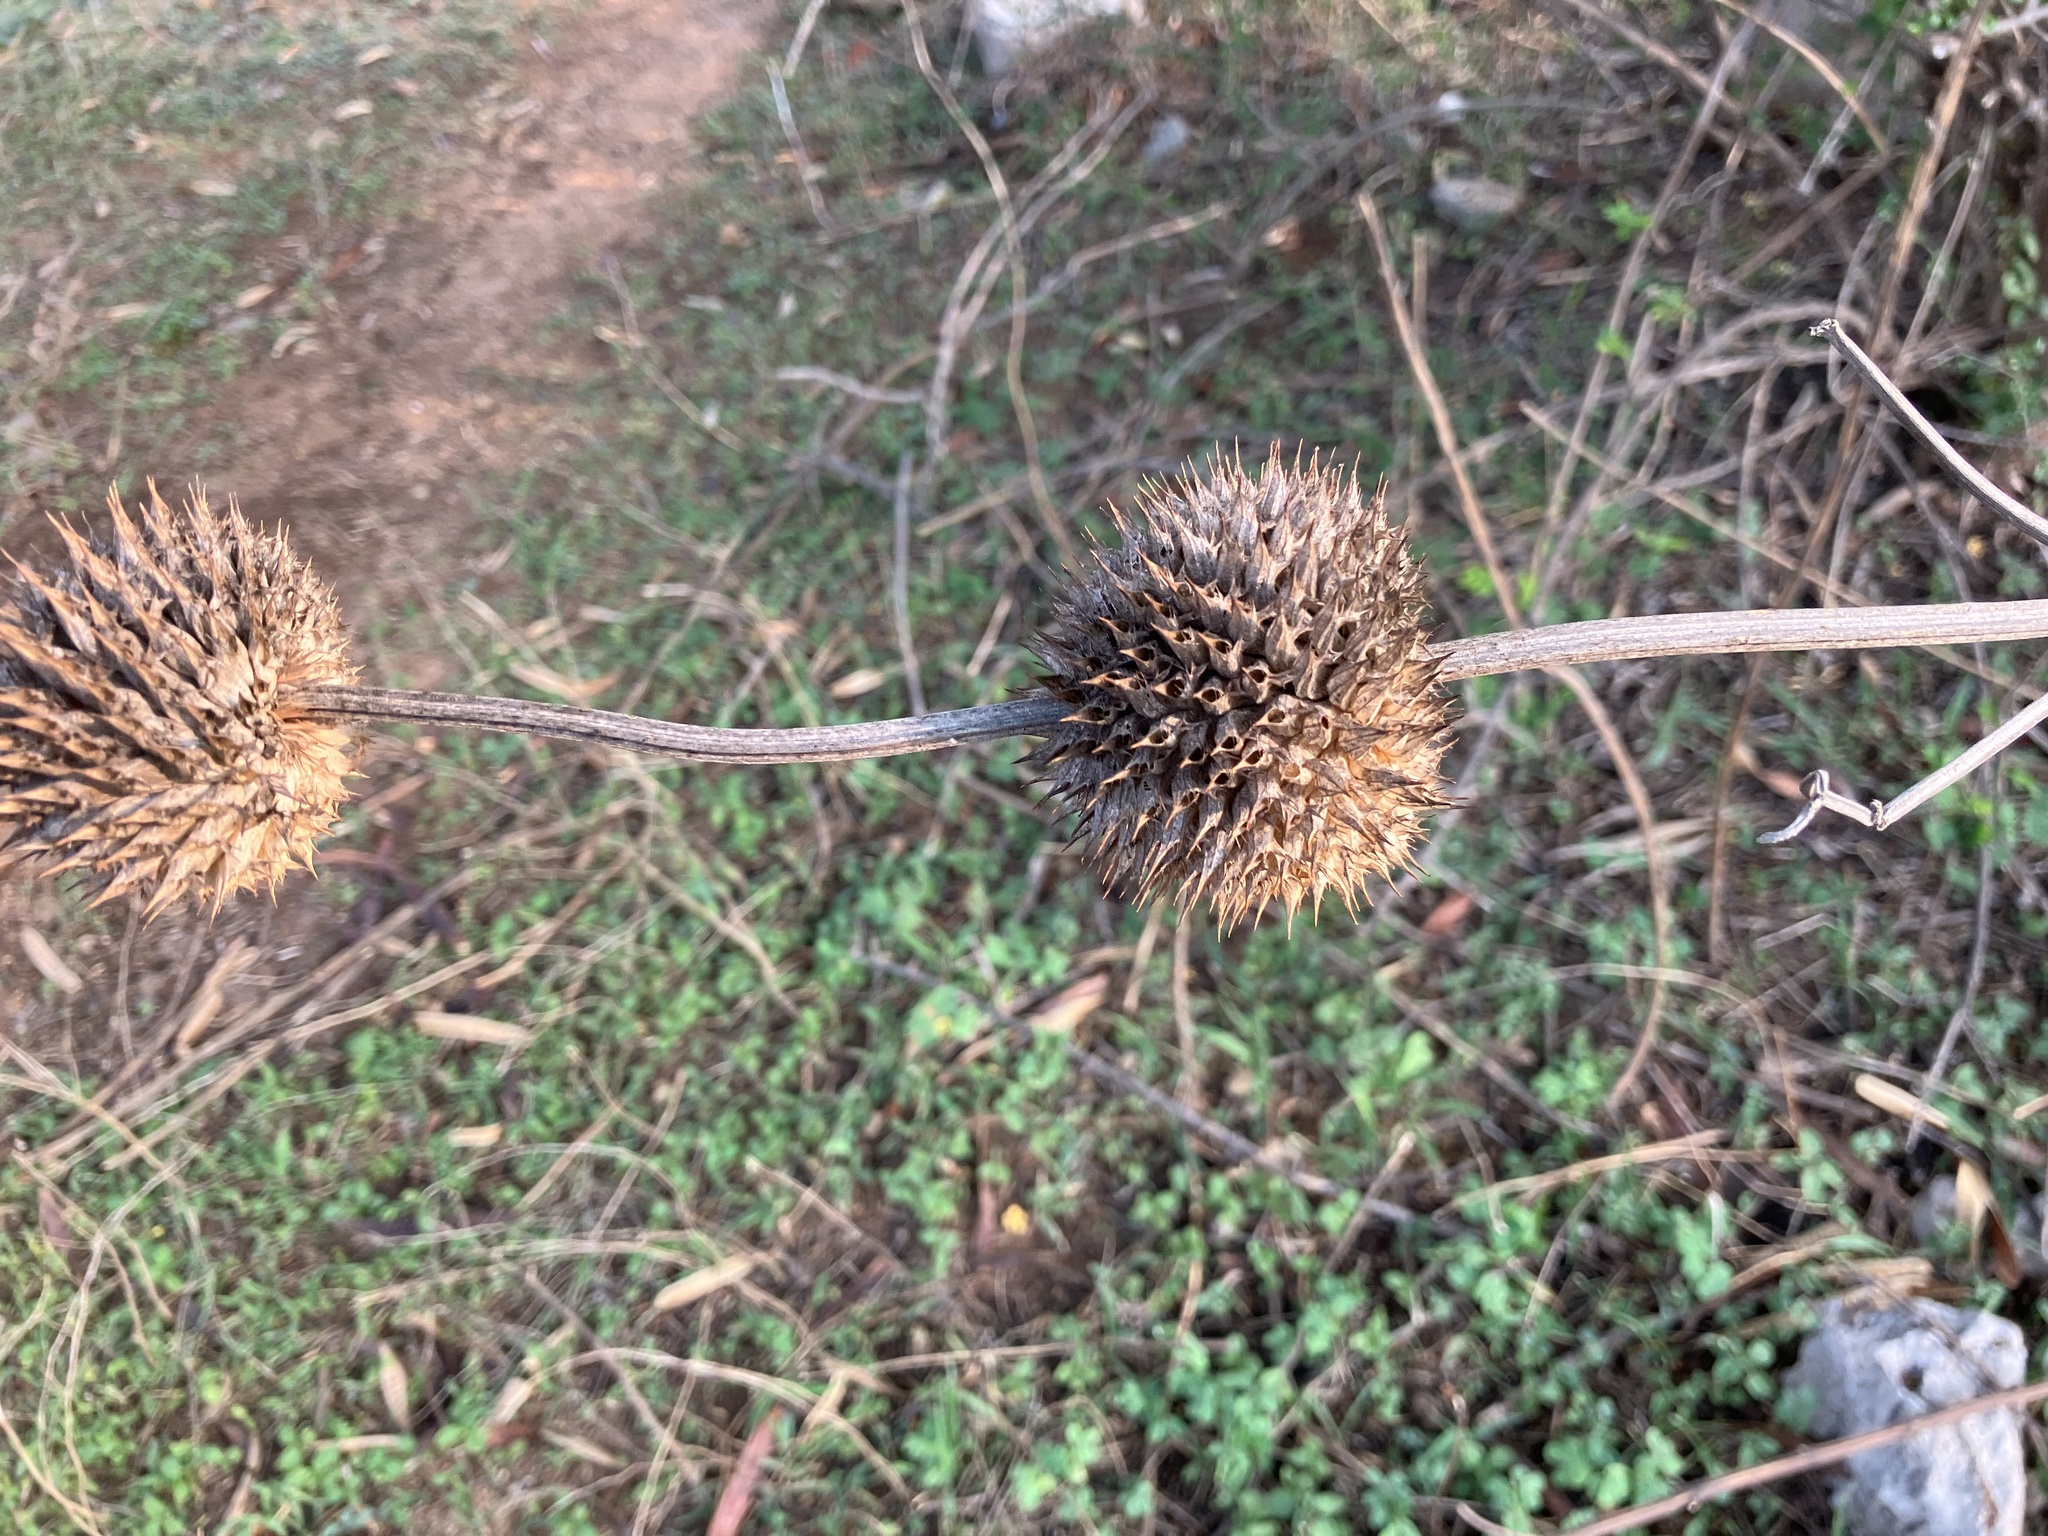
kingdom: Plantae
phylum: Tracheophyta
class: Magnoliopsida
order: Lamiales
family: Lamiaceae
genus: Leonotis
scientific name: Leonotis nepetifolia
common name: Christmas candlestick
